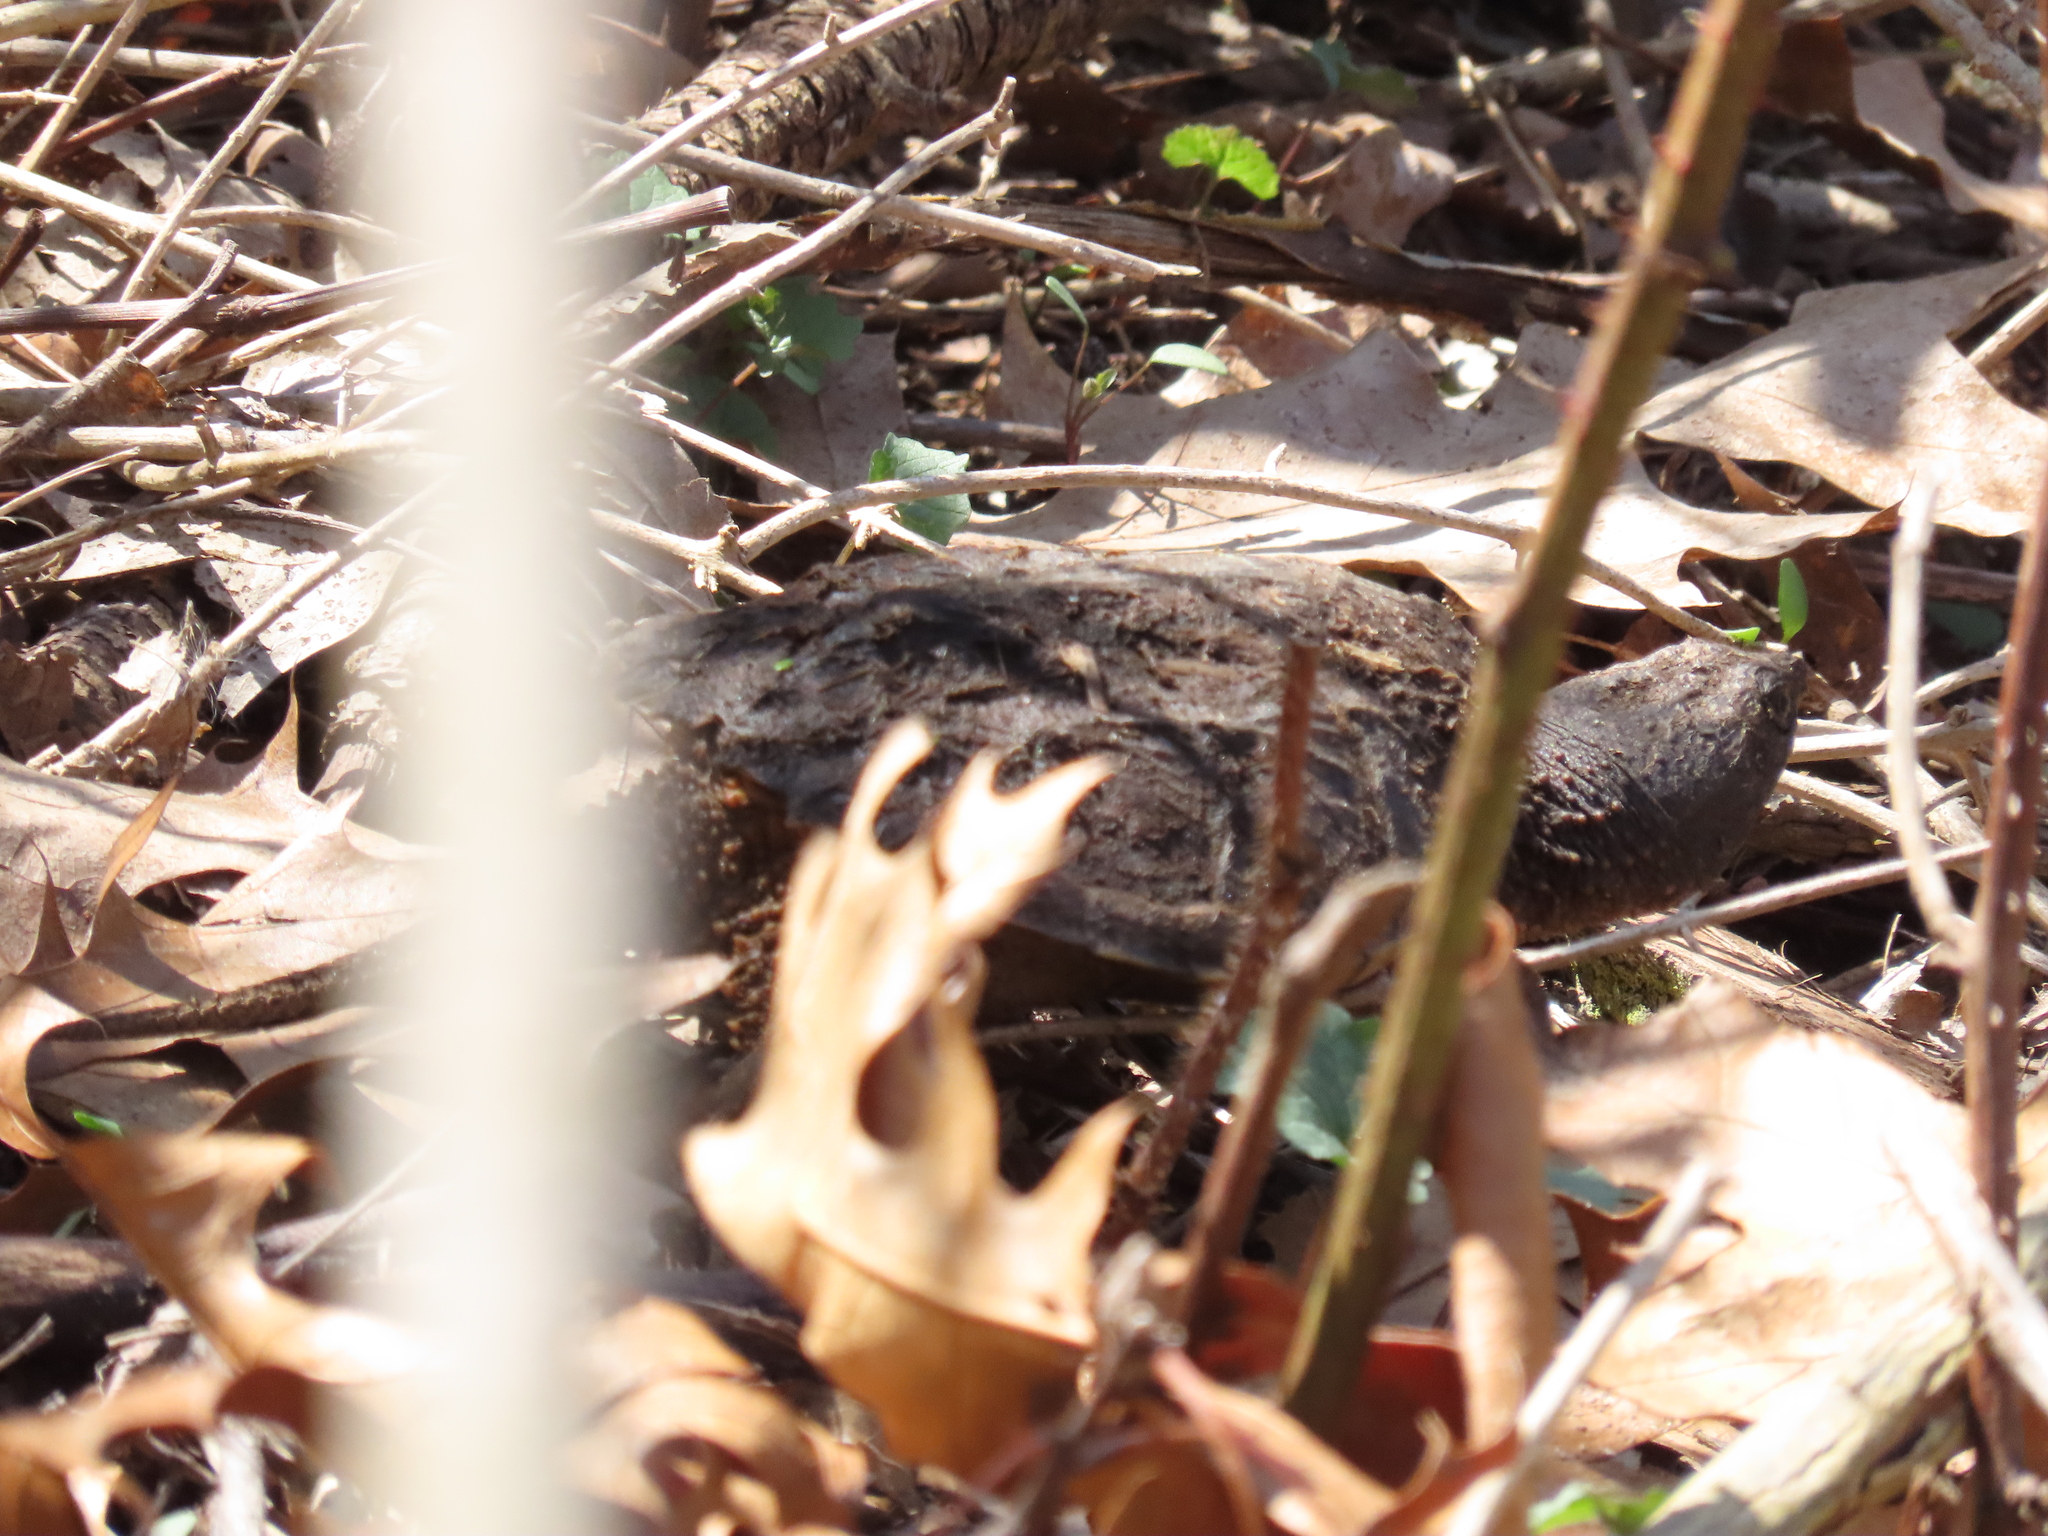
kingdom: Animalia
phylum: Chordata
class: Testudines
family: Chelydridae
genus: Chelydra
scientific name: Chelydra serpentina
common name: Common snapping turtle
